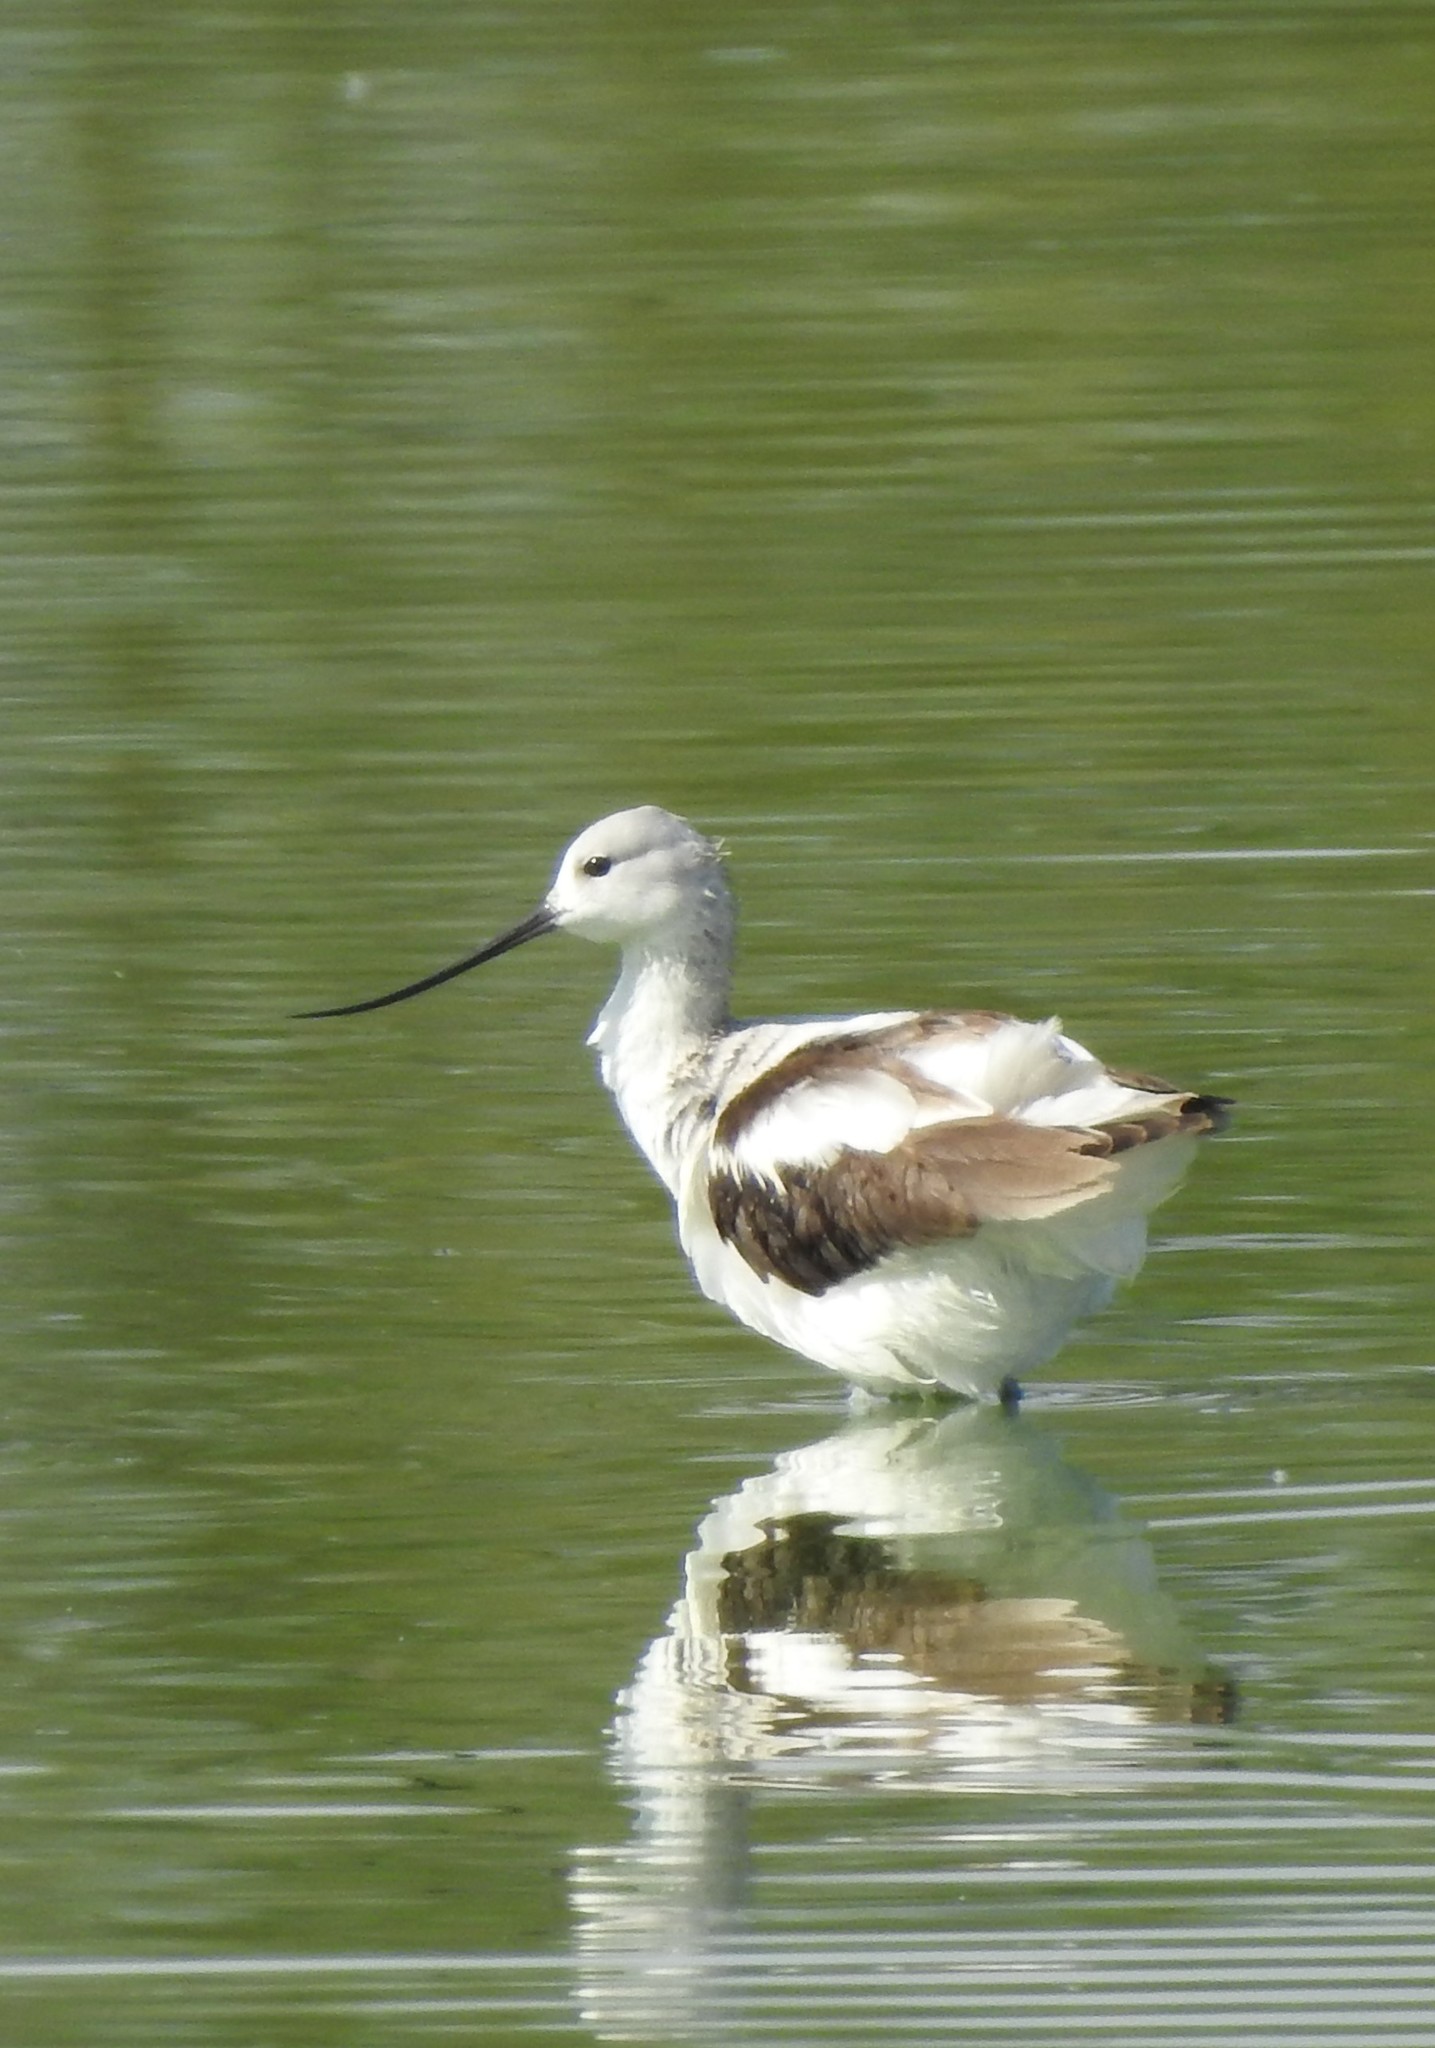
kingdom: Animalia
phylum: Chordata
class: Aves
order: Charadriiformes
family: Recurvirostridae
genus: Recurvirostra
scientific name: Recurvirostra americana
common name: American avocet
